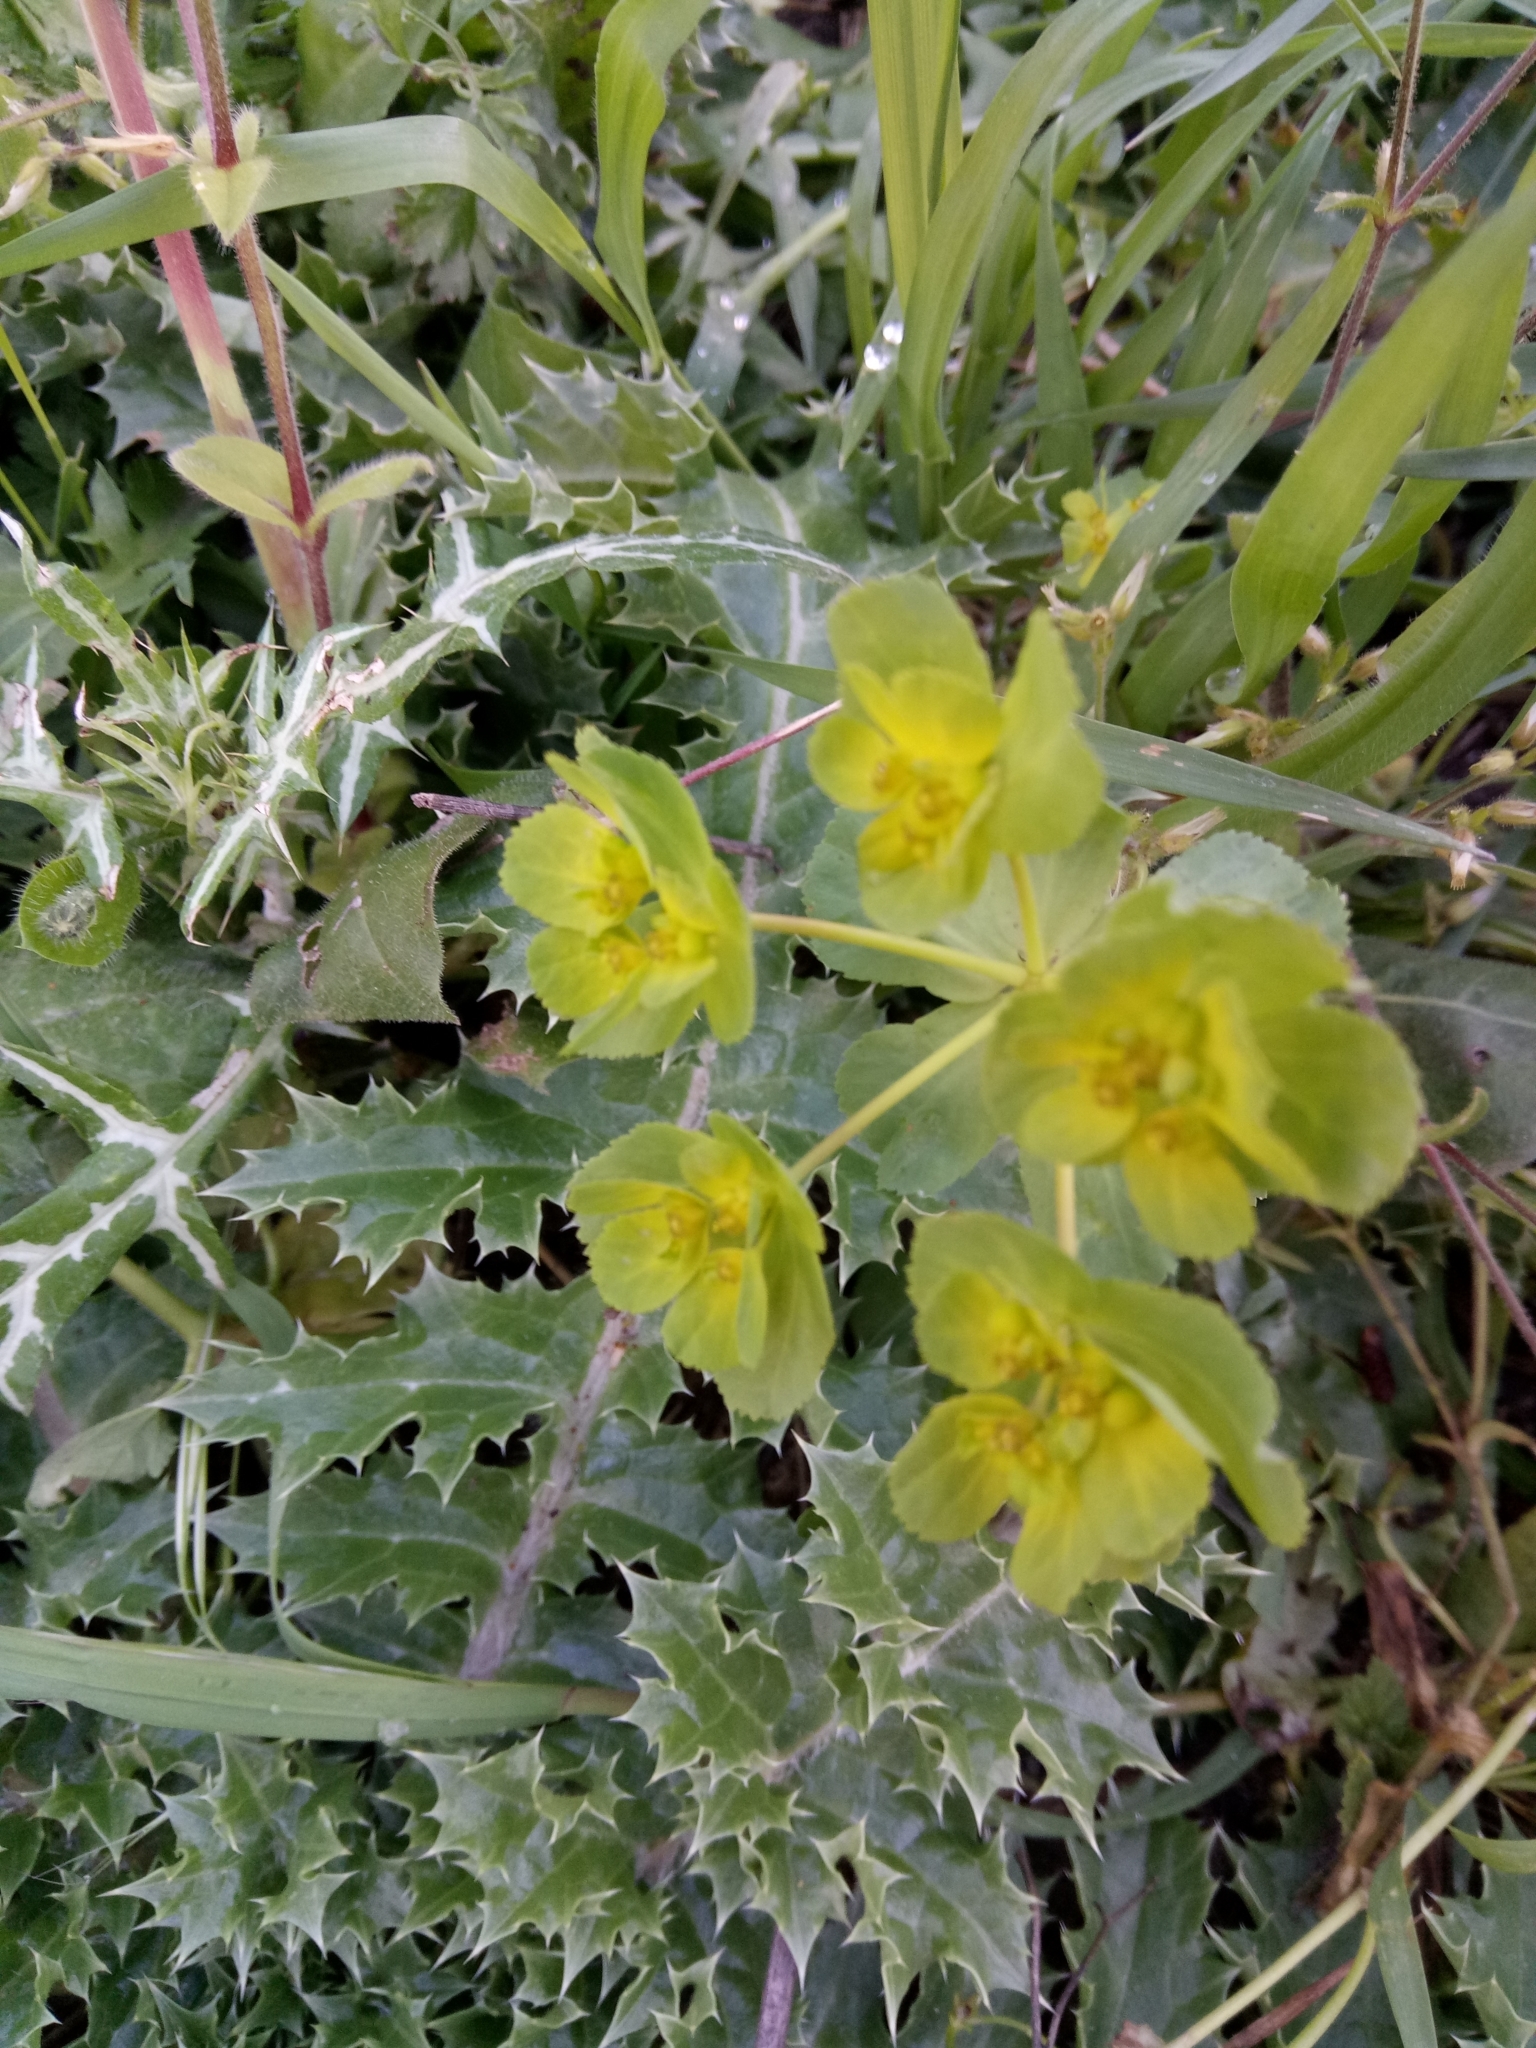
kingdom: Plantae
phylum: Tracheophyta
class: Magnoliopsida
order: Malpighiales
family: Euphorbiaceae
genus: Euphorbia
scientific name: Euphorbia helioscopia
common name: Sun spurge
